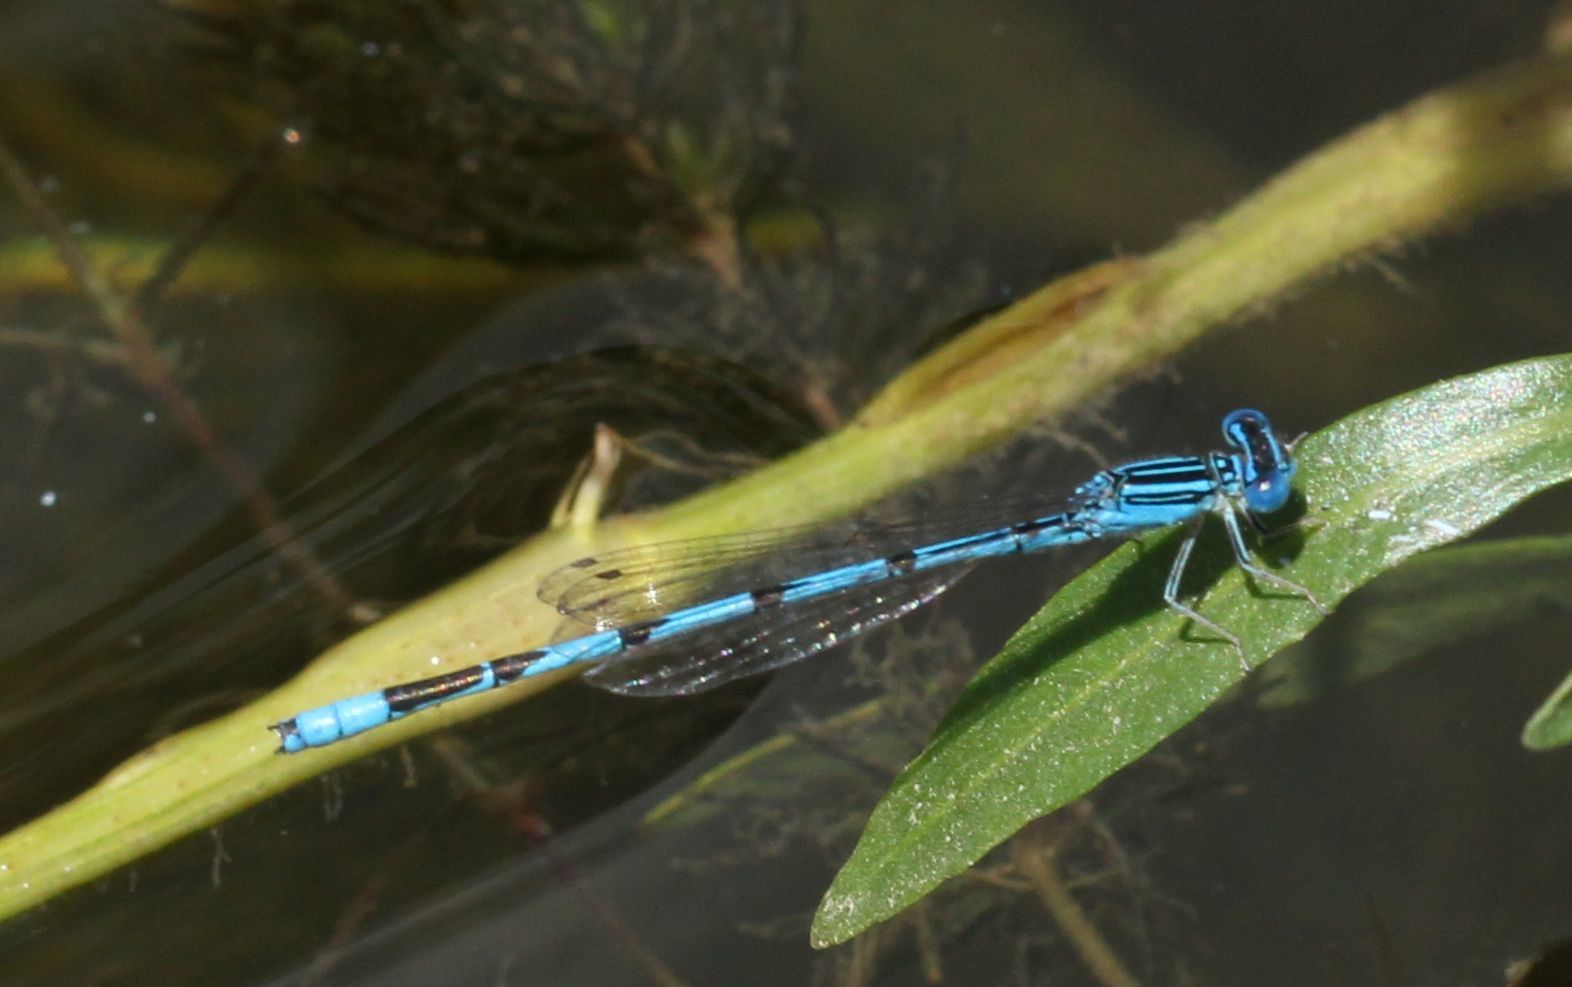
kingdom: Animalia
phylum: Arthropoda
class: Insecta
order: Odonata
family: Coenagrionidae
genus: Enallagma
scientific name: Enallagma basidens
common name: Double-striped bluet
